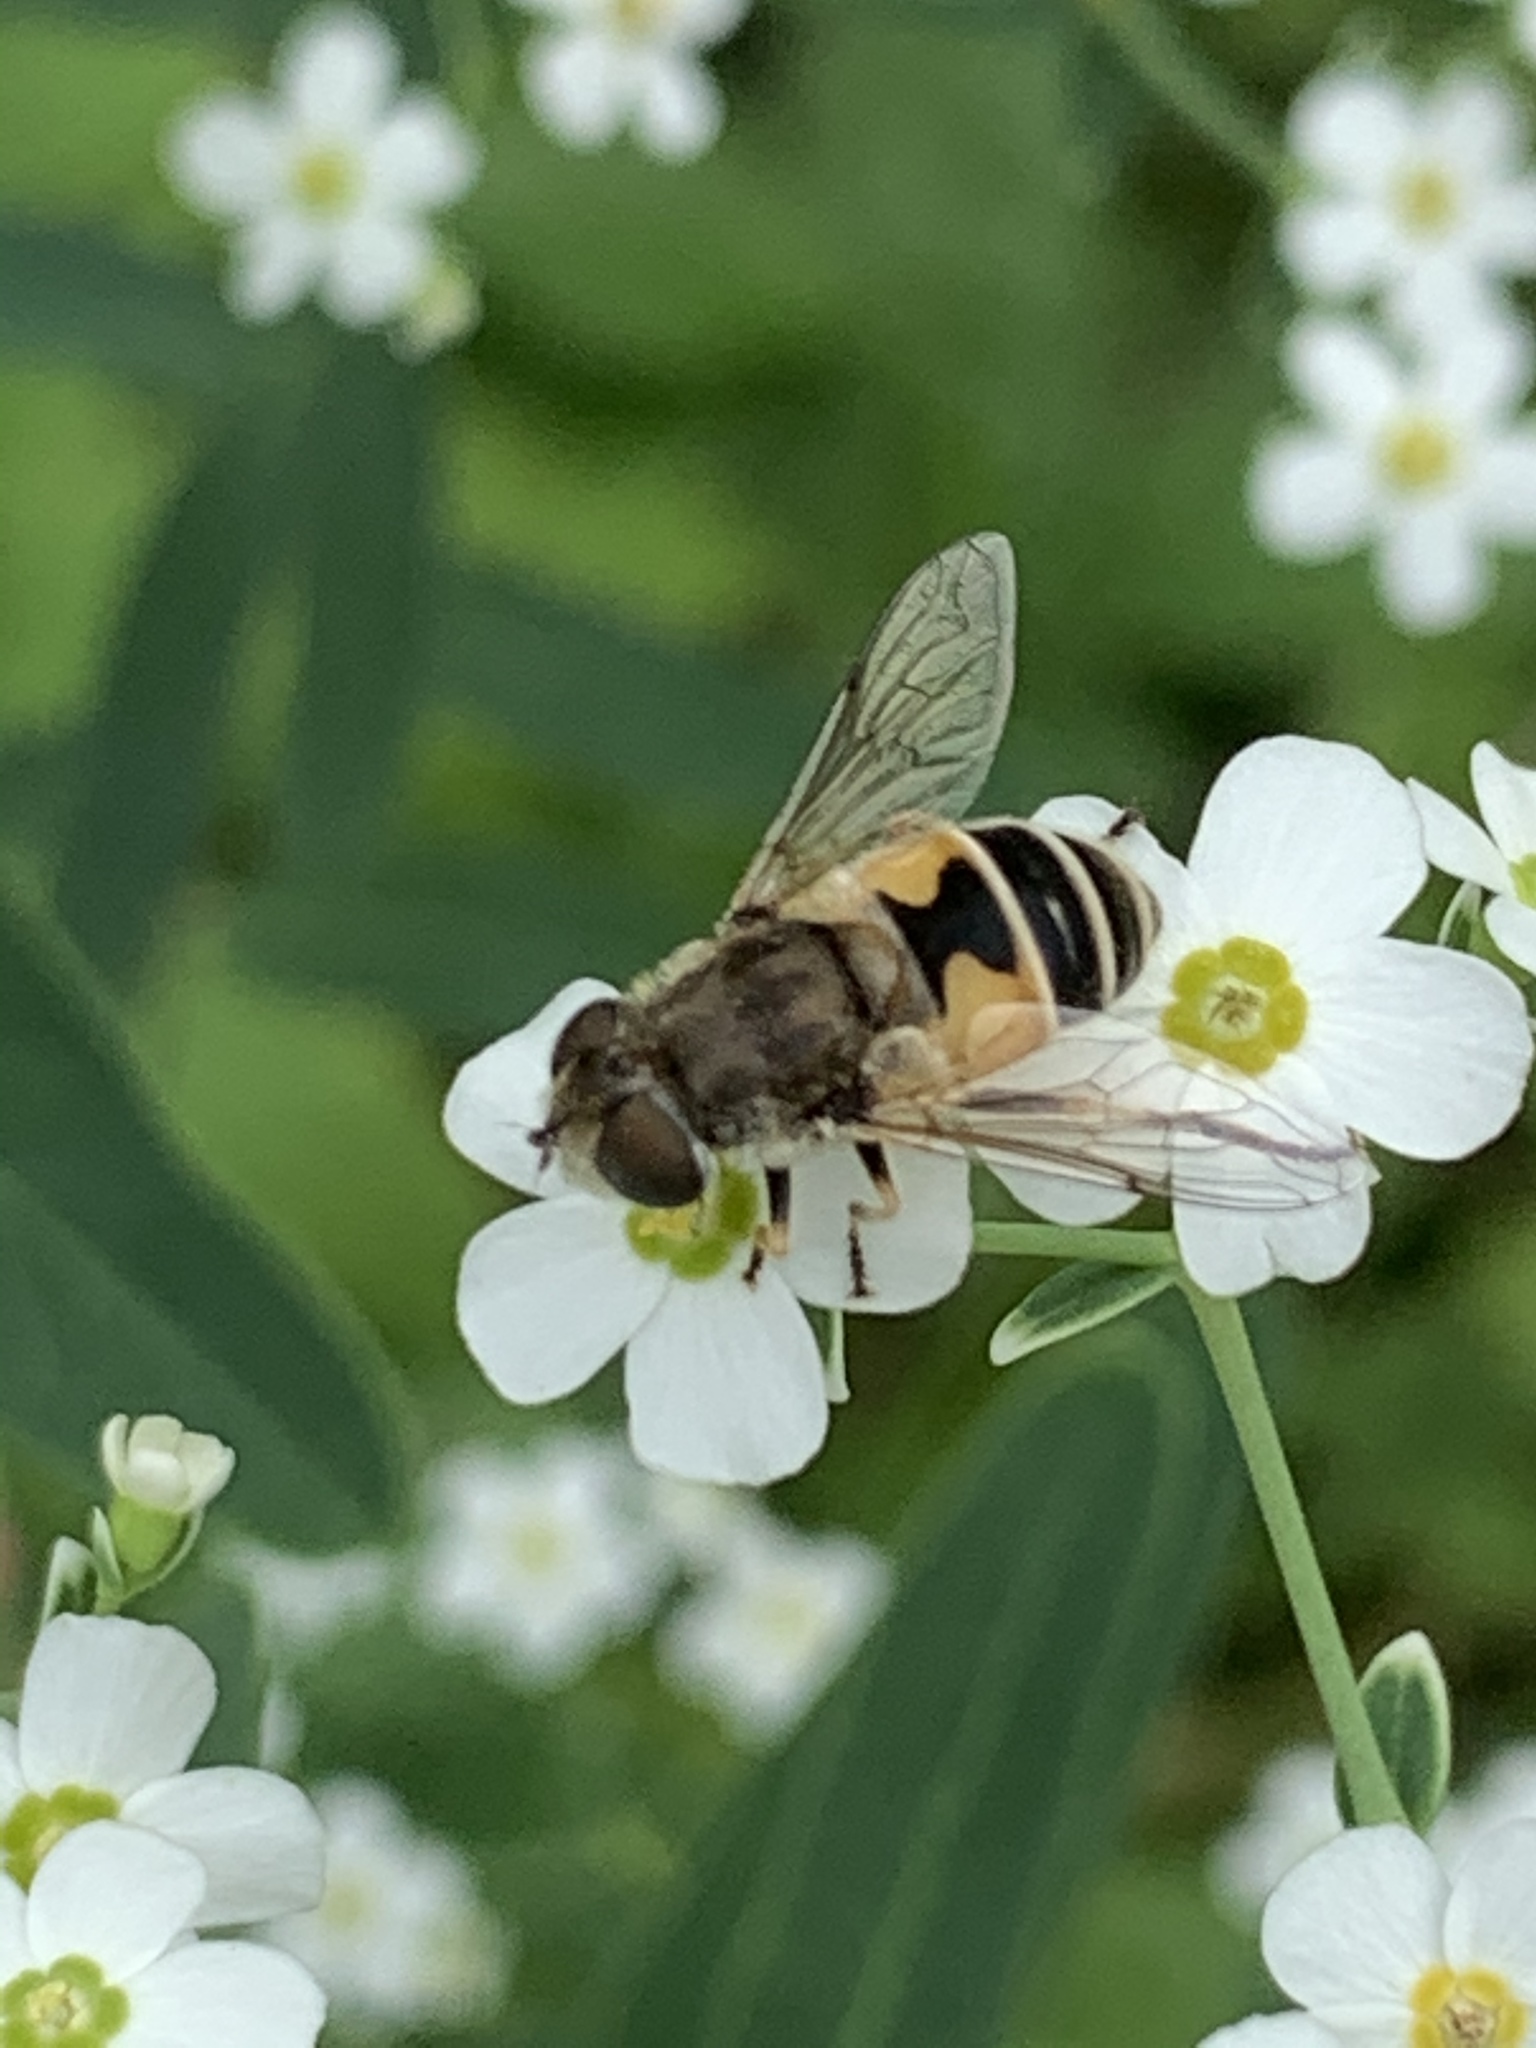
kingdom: Animalia
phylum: Arthropoda
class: Insecta
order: Diptera
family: Syrphidae
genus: Eristalis
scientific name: Eristalis arbustorum
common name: Hover fly
